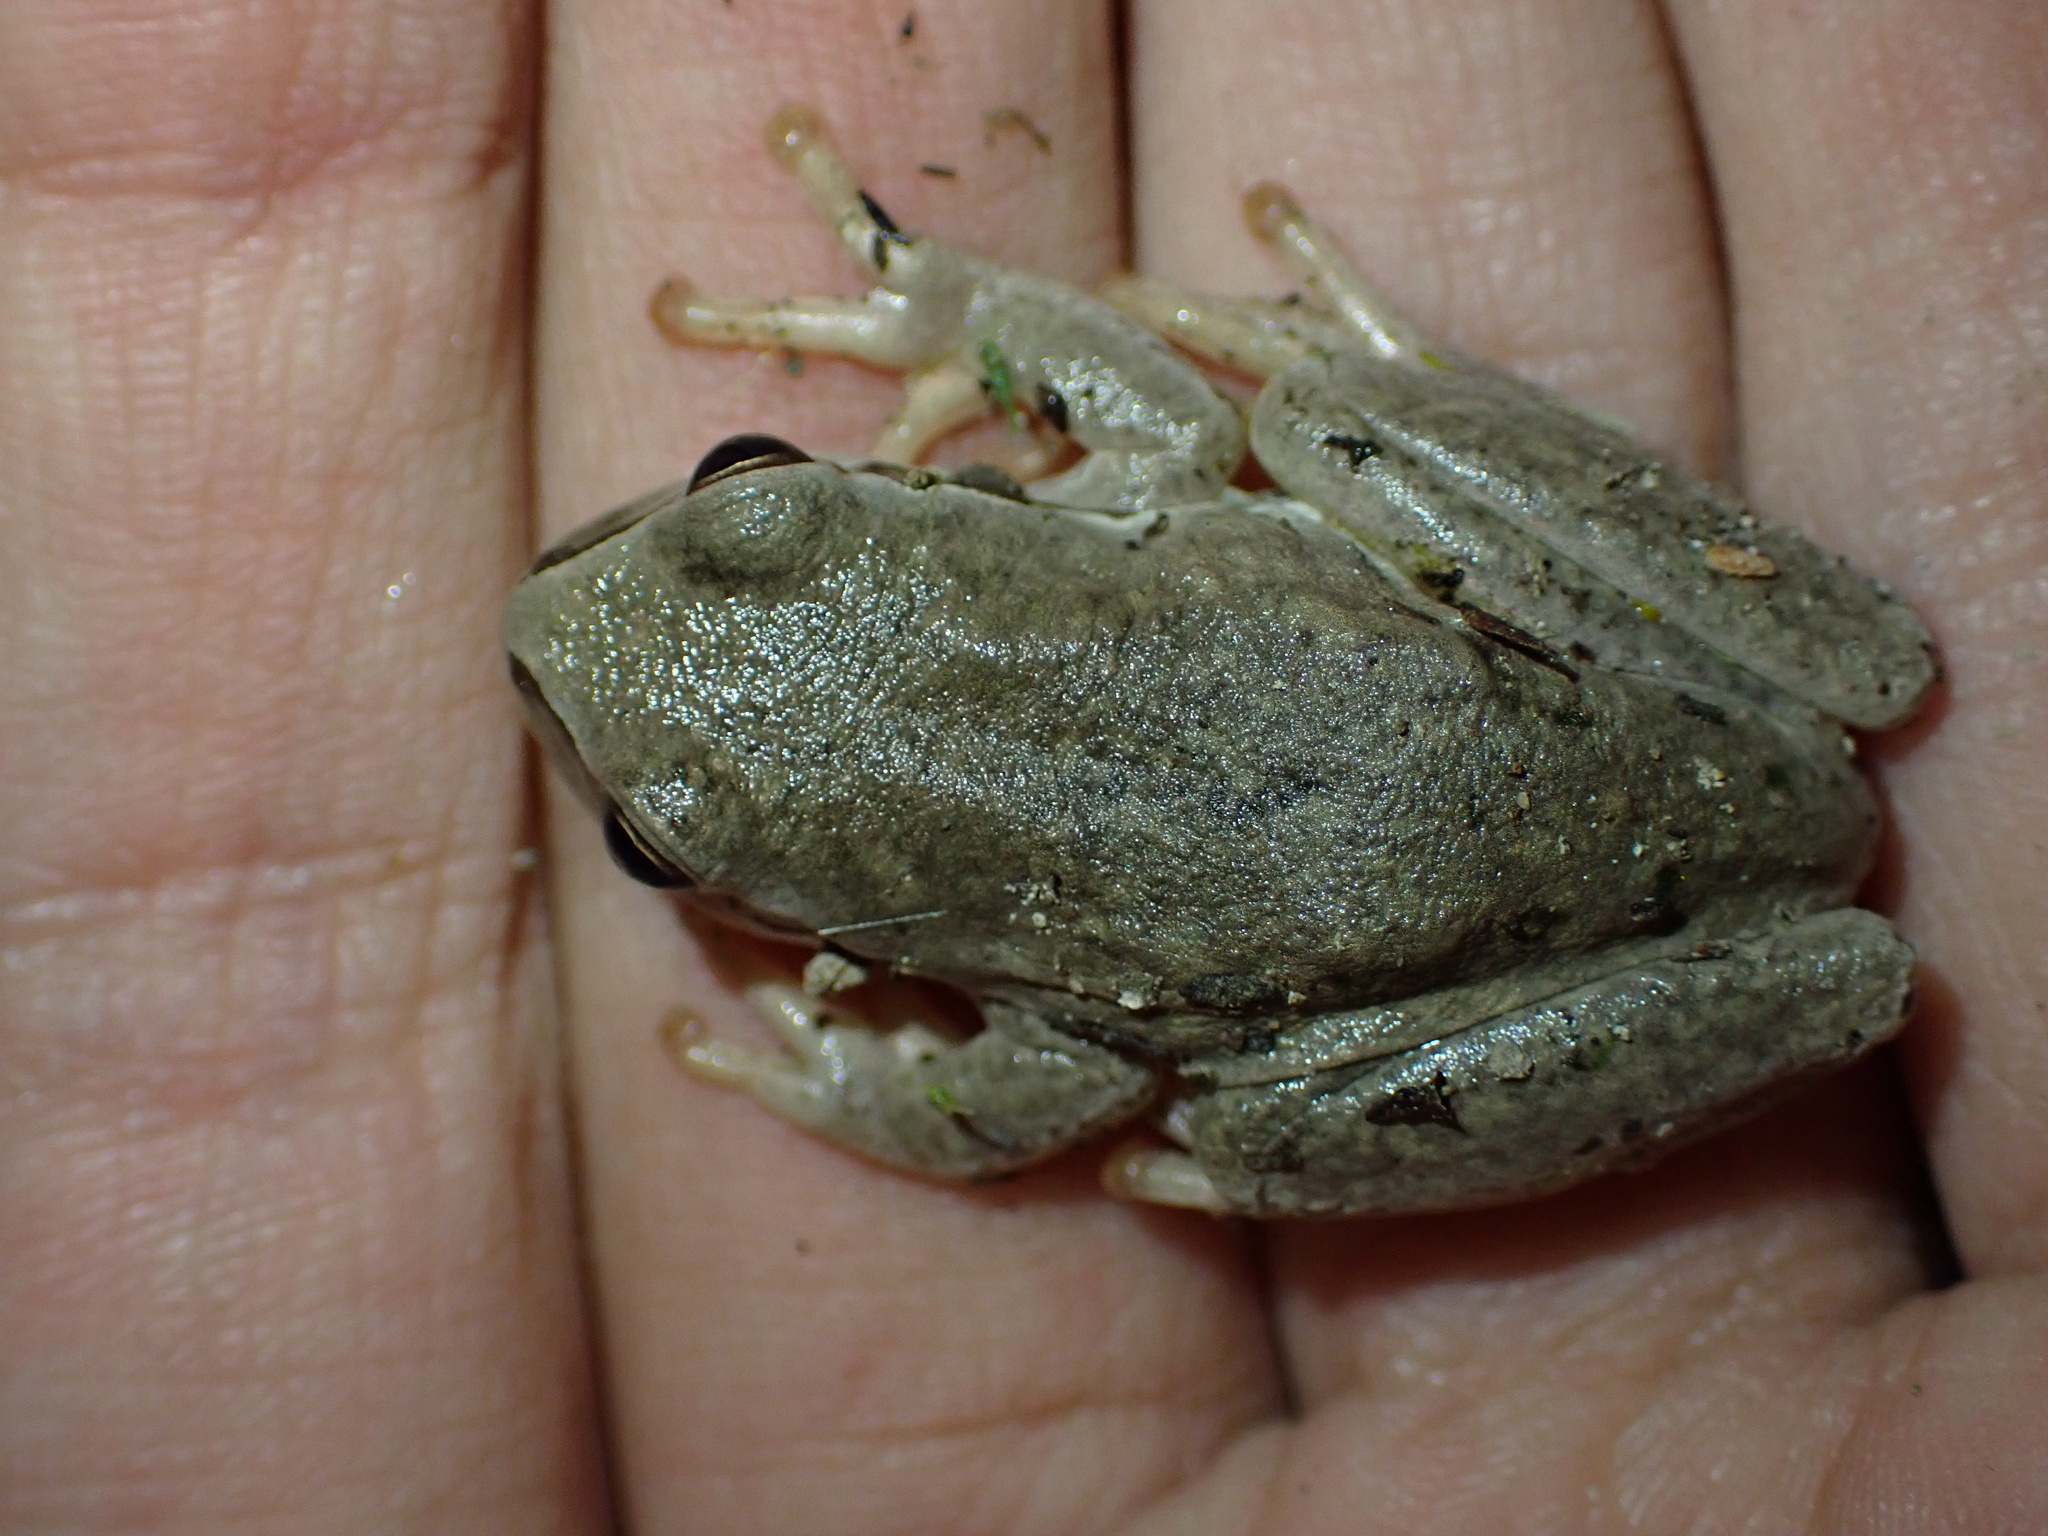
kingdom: Animalia
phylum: Chordata
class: Amphibia
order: Anura
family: Hylidae
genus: Hyla
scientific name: Hyla savignyi
